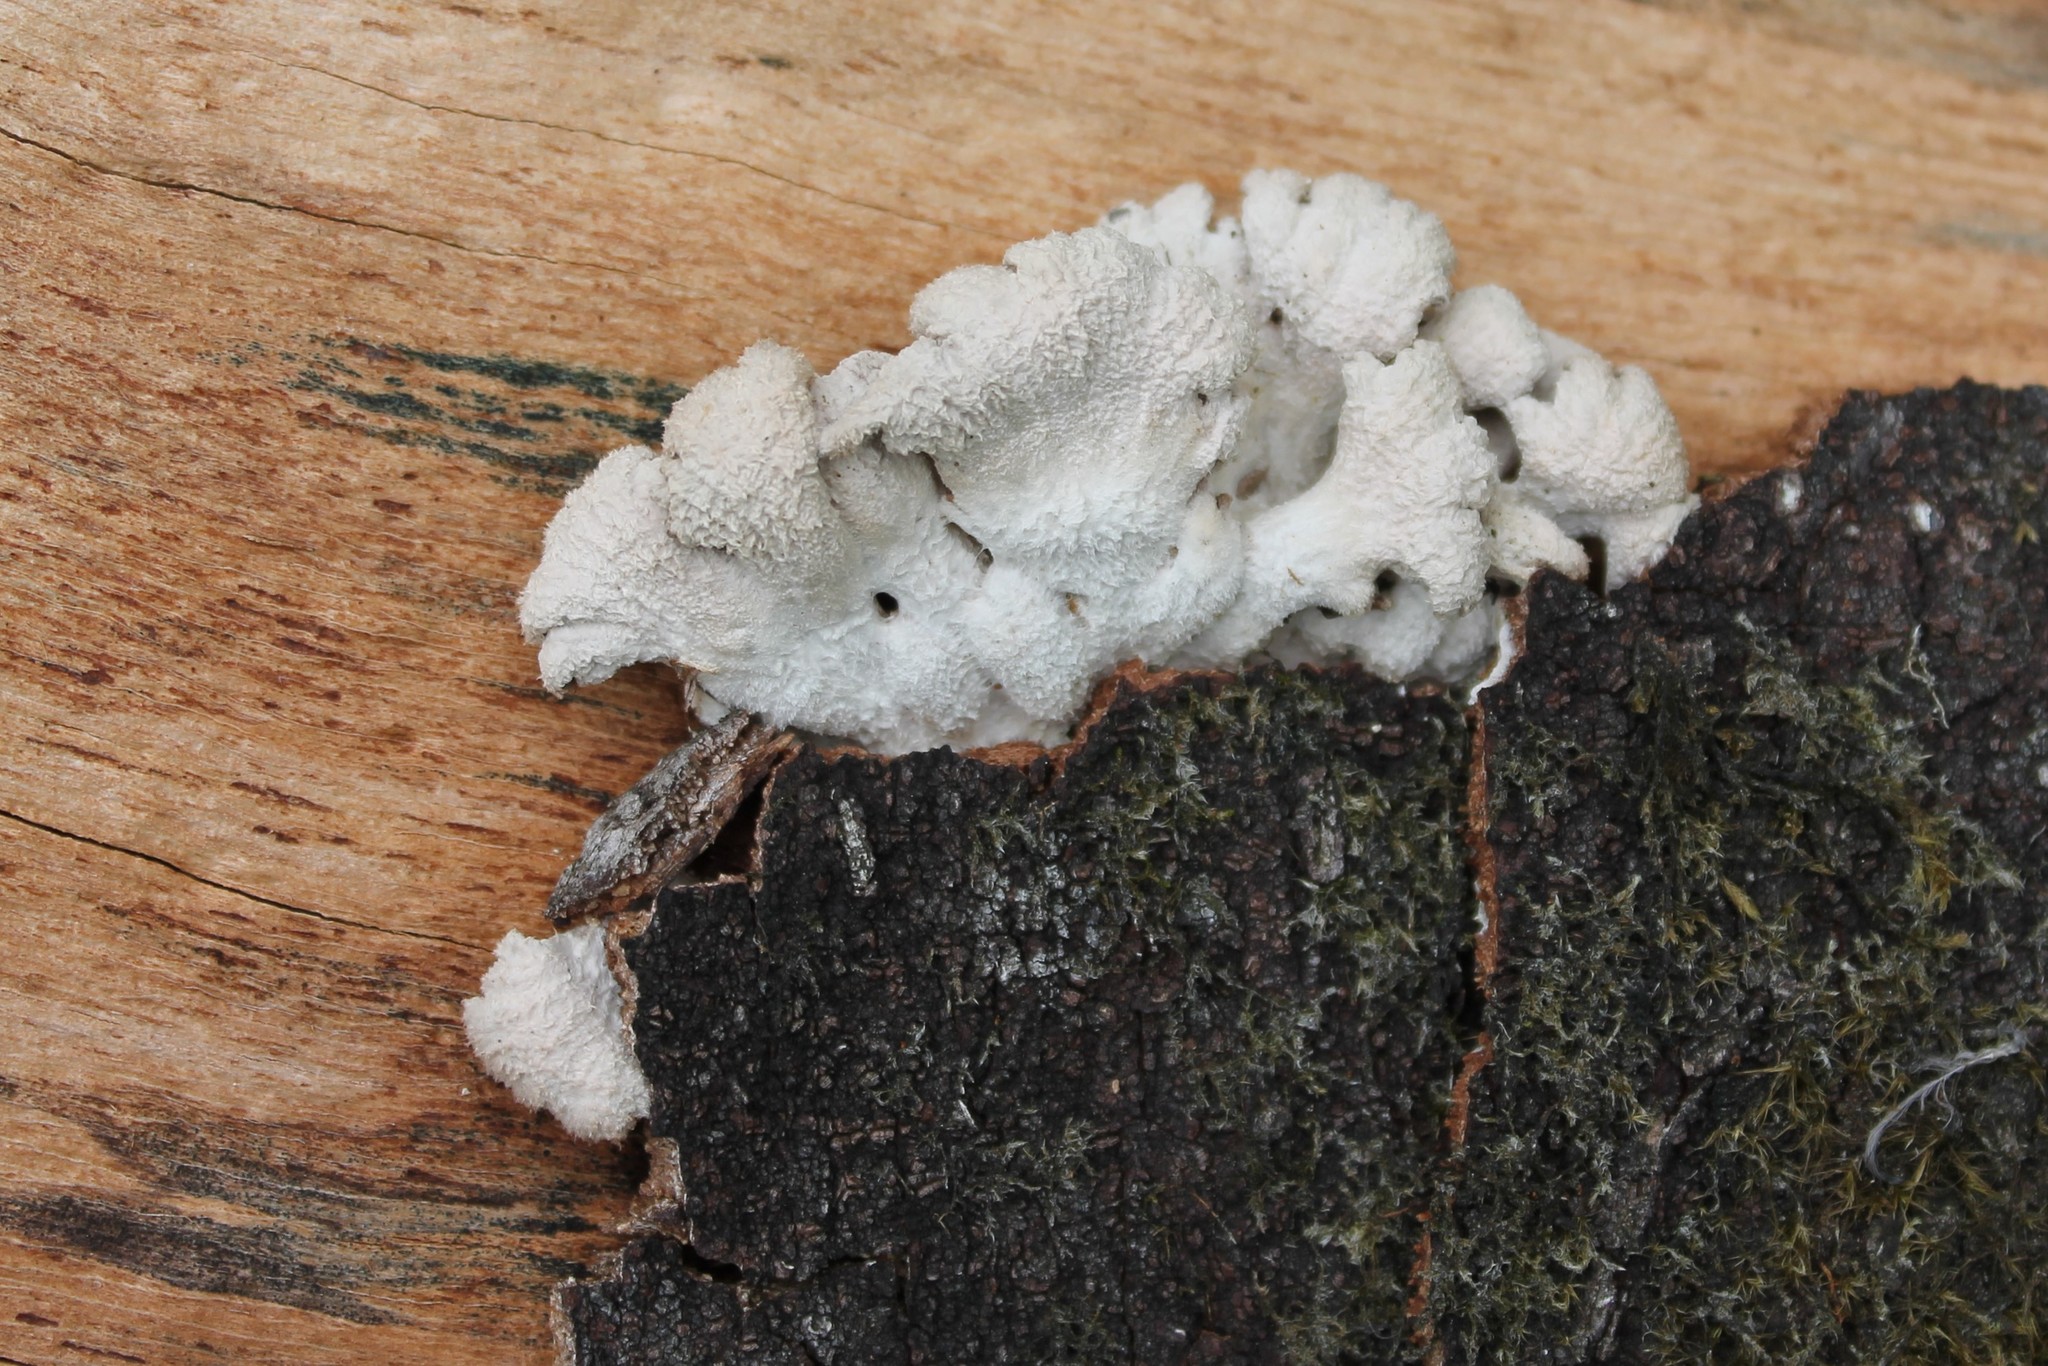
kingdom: Fungi
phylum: Basidiomycota
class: Agaricomycetes
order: Agaricales
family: Schizophyllaceae
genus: Schizophyllum
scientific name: Schizophyllum commune
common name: Common porecrust
